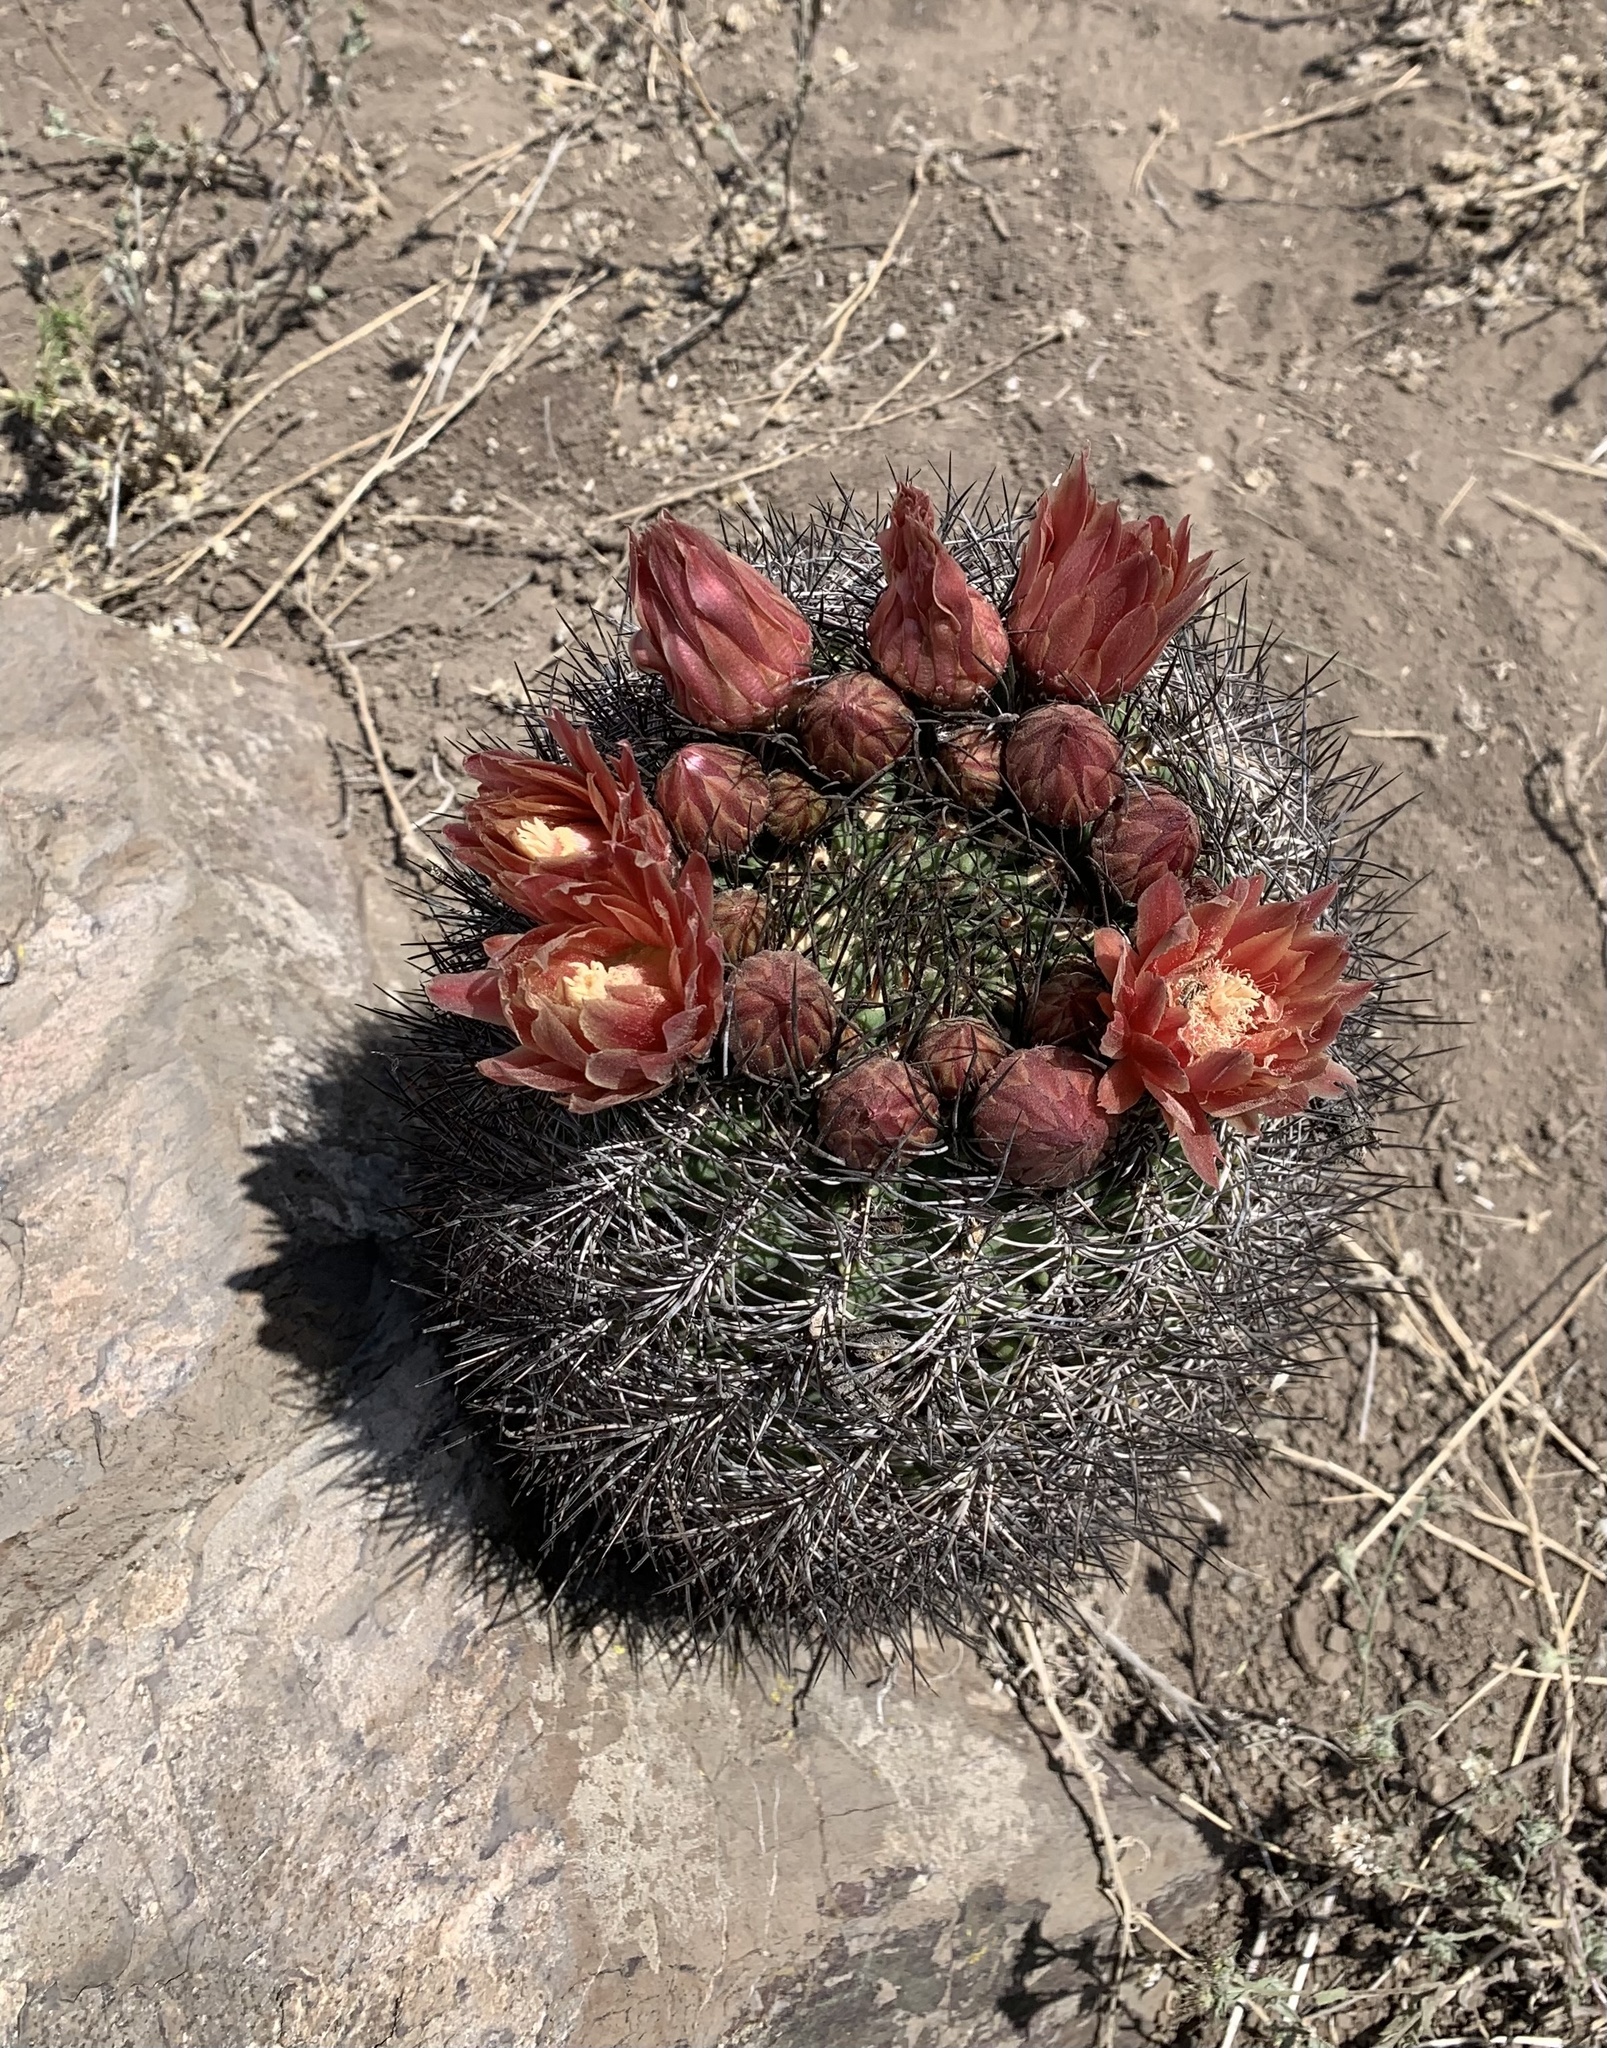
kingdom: Plantae
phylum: Tracheophyta
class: Magnoliopsida
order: Caryophyllales
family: Cactaceae
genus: Eriosyce
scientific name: Eriosyce curvispina
